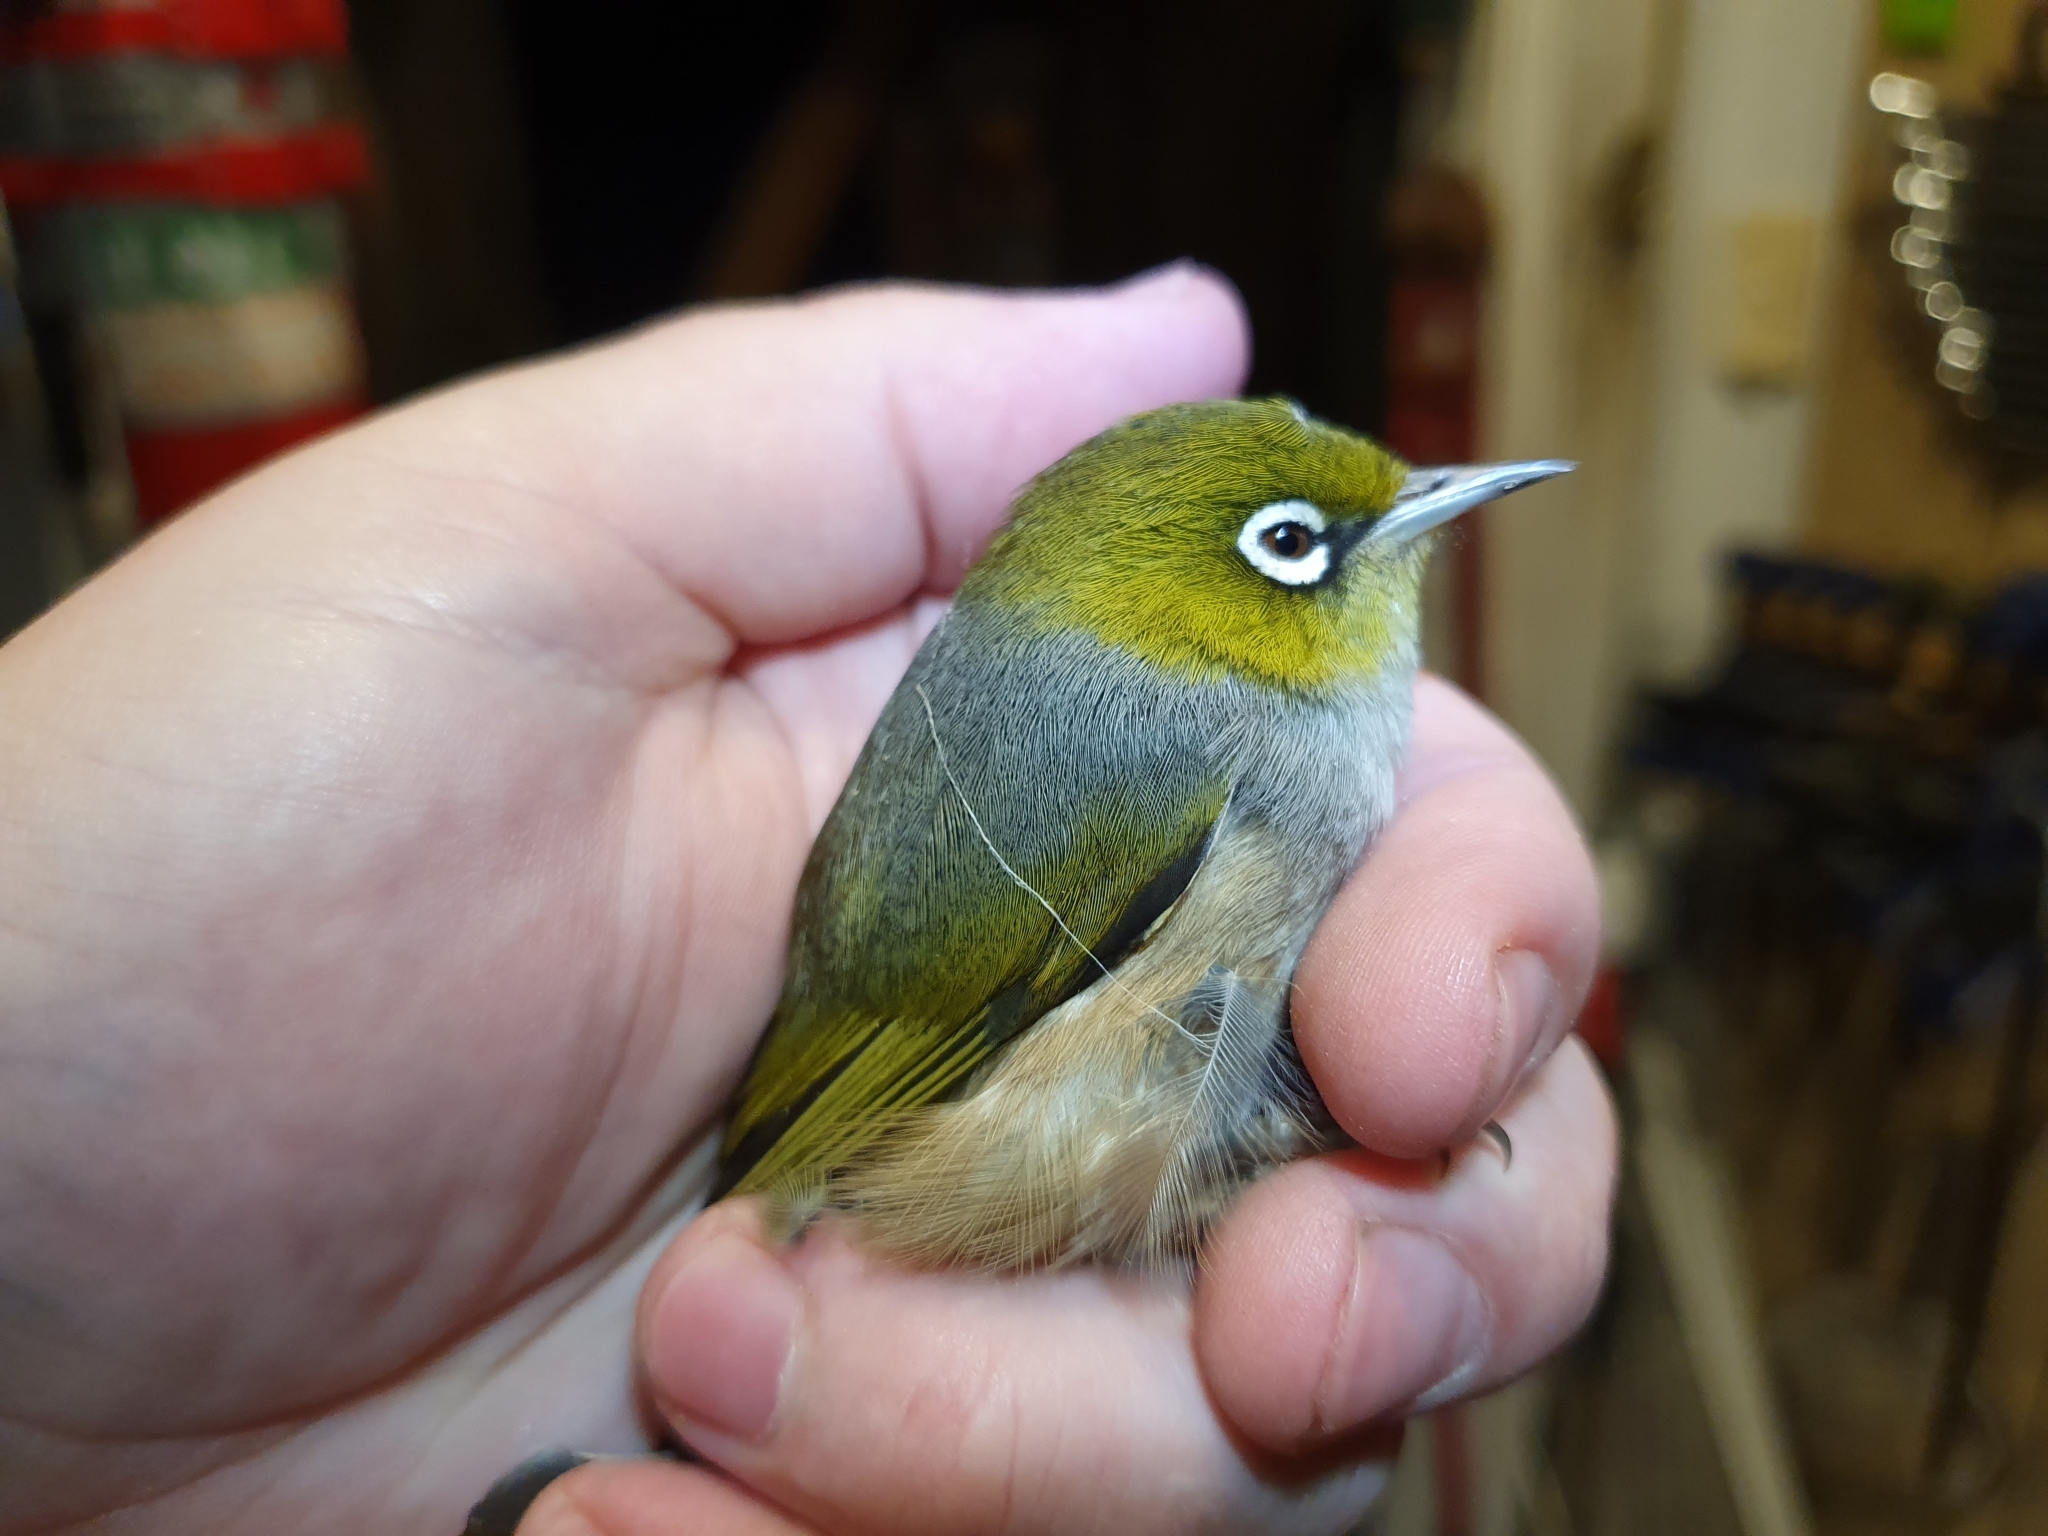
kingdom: Animalia
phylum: Chordata
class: Aves
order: Passeriformes
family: Zosteropidae
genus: Zosterops
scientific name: Zosterops lateralis
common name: Silvereye
